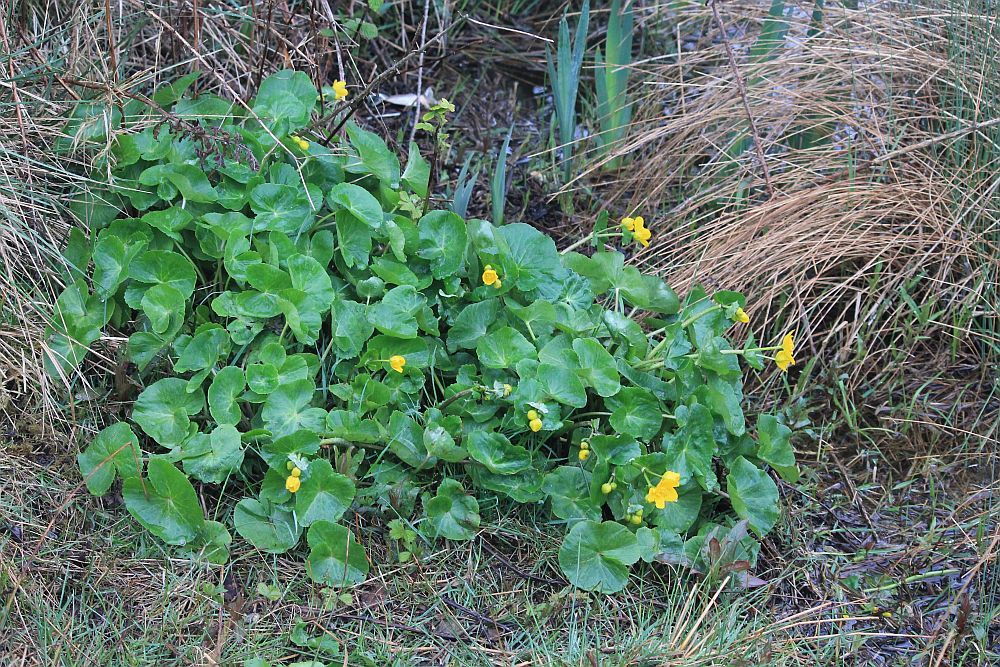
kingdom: Plantae
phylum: Tracheophyta
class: Magnoliopsida
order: Ranunculales
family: Ranunculaceae
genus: Caltha
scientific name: Caltha palustris
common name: Marsh marigold
